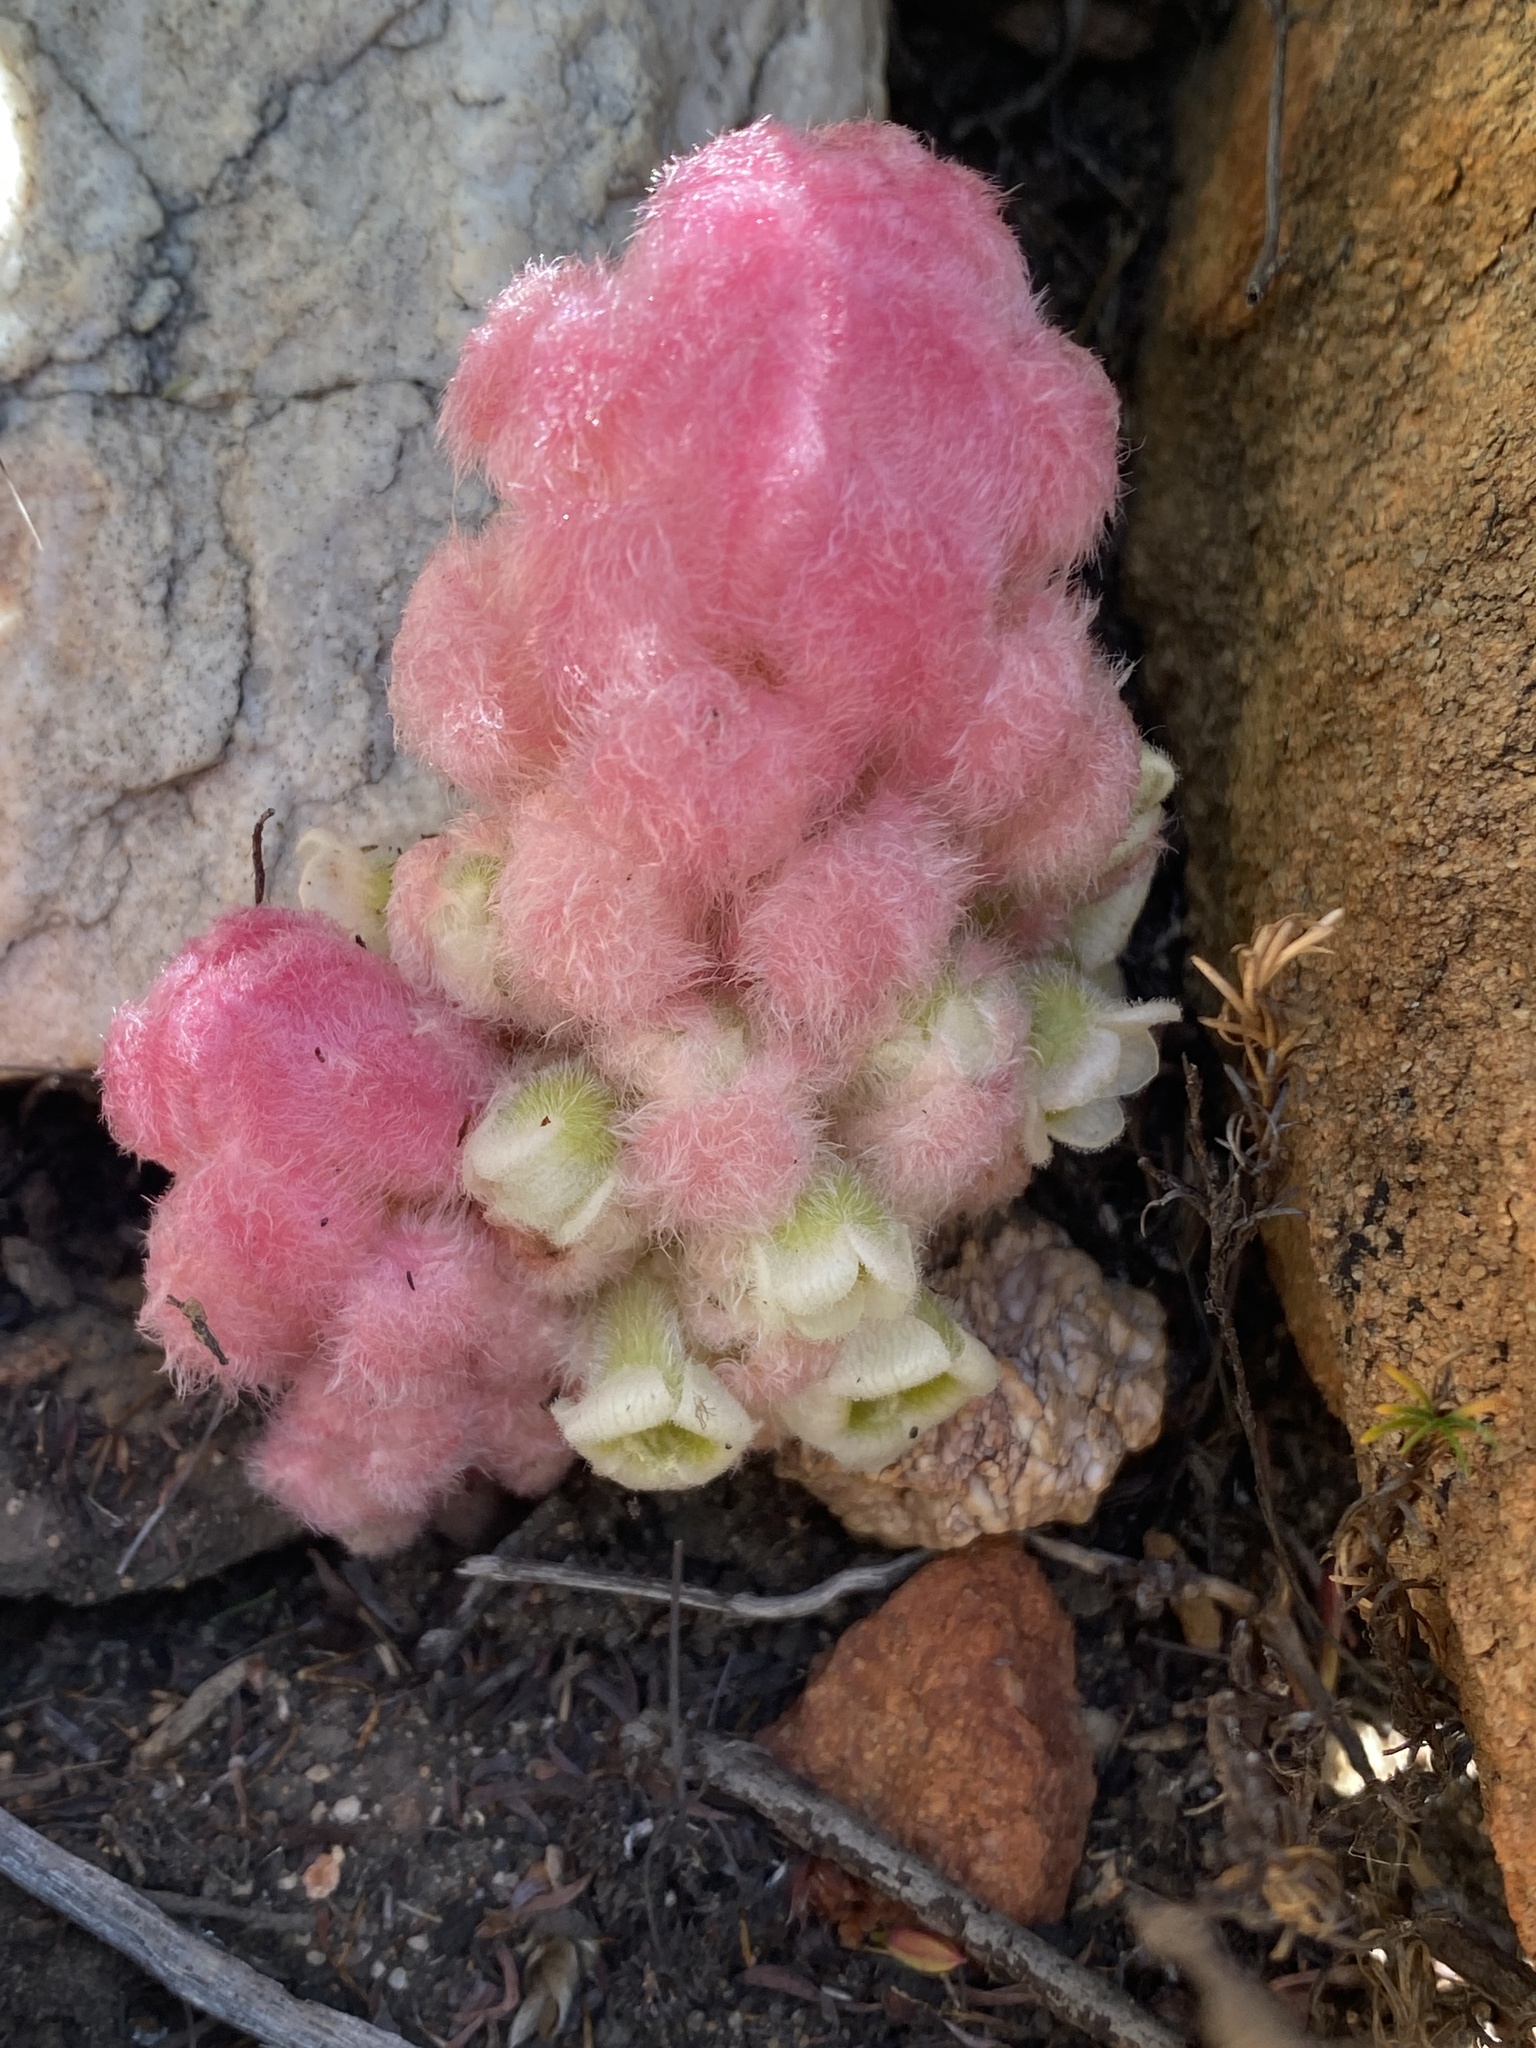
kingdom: Plantae
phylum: Tracheophyta
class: Magnoliopsida
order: Lamiales
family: Orobanchaceae
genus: Harveya
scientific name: Harveya roseoalba
